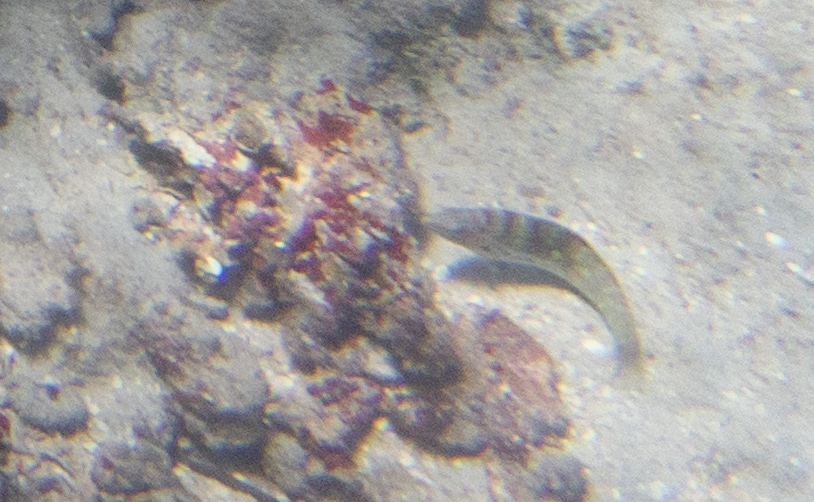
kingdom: Animalia
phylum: Chordata
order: Perciformes
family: Labridae
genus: Coris
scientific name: Coris batuensis
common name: Batu coris
